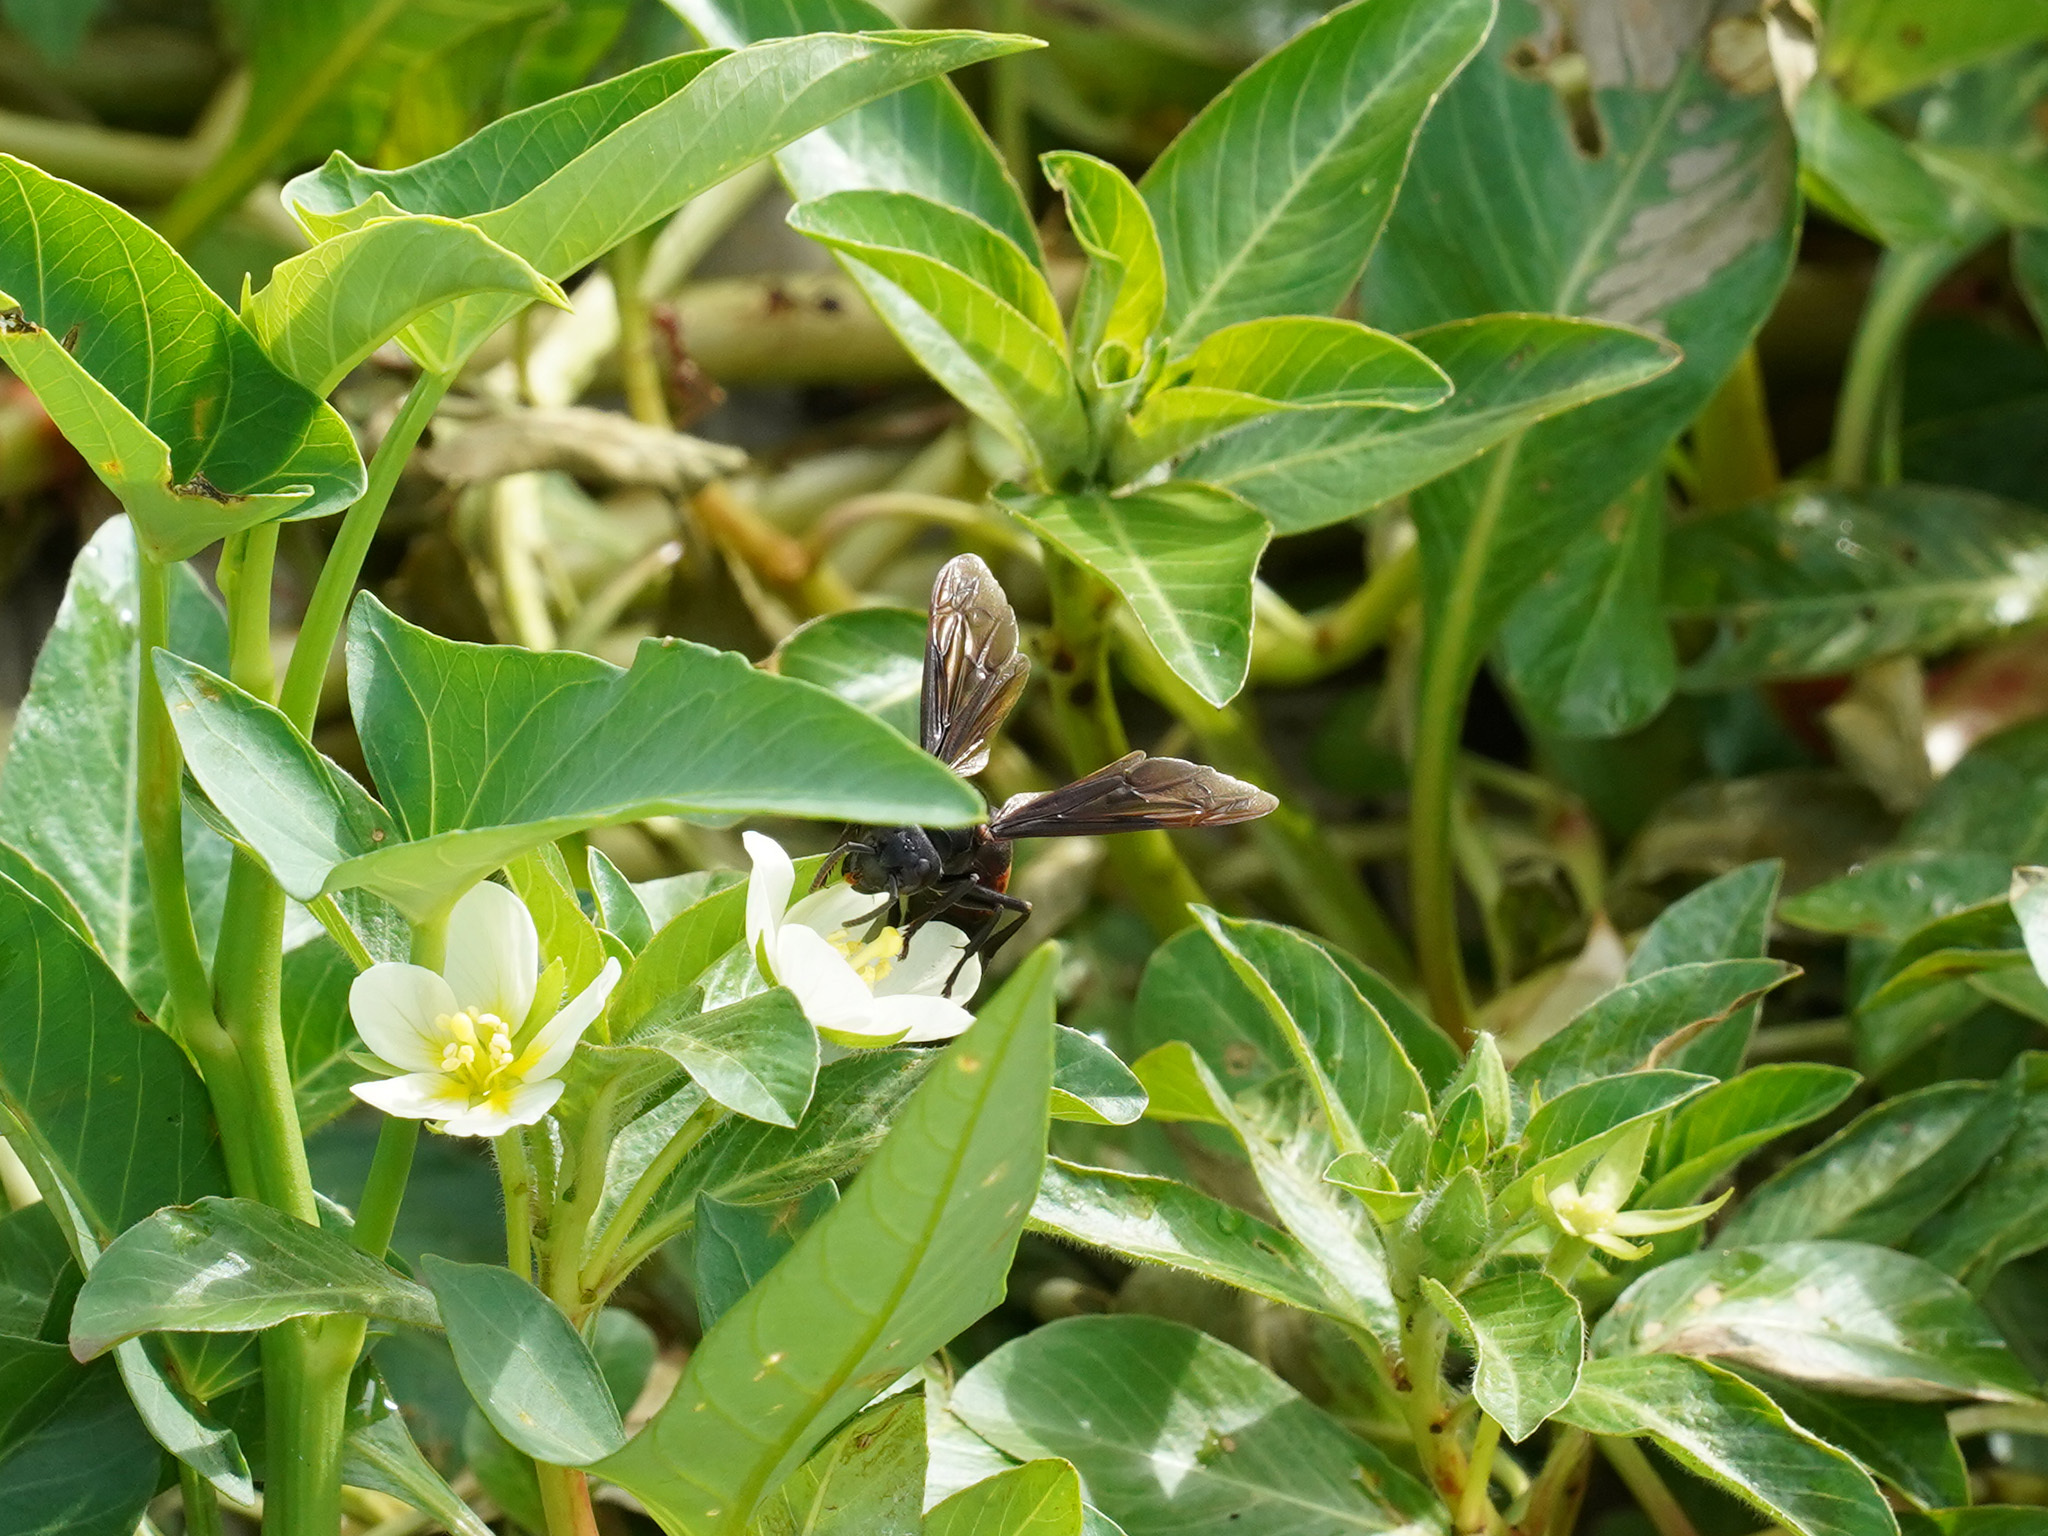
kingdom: Animalia
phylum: Arthropoda
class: Insecta
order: Hymenoptera
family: Vespidae
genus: Vespa
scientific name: Vespa affinis
